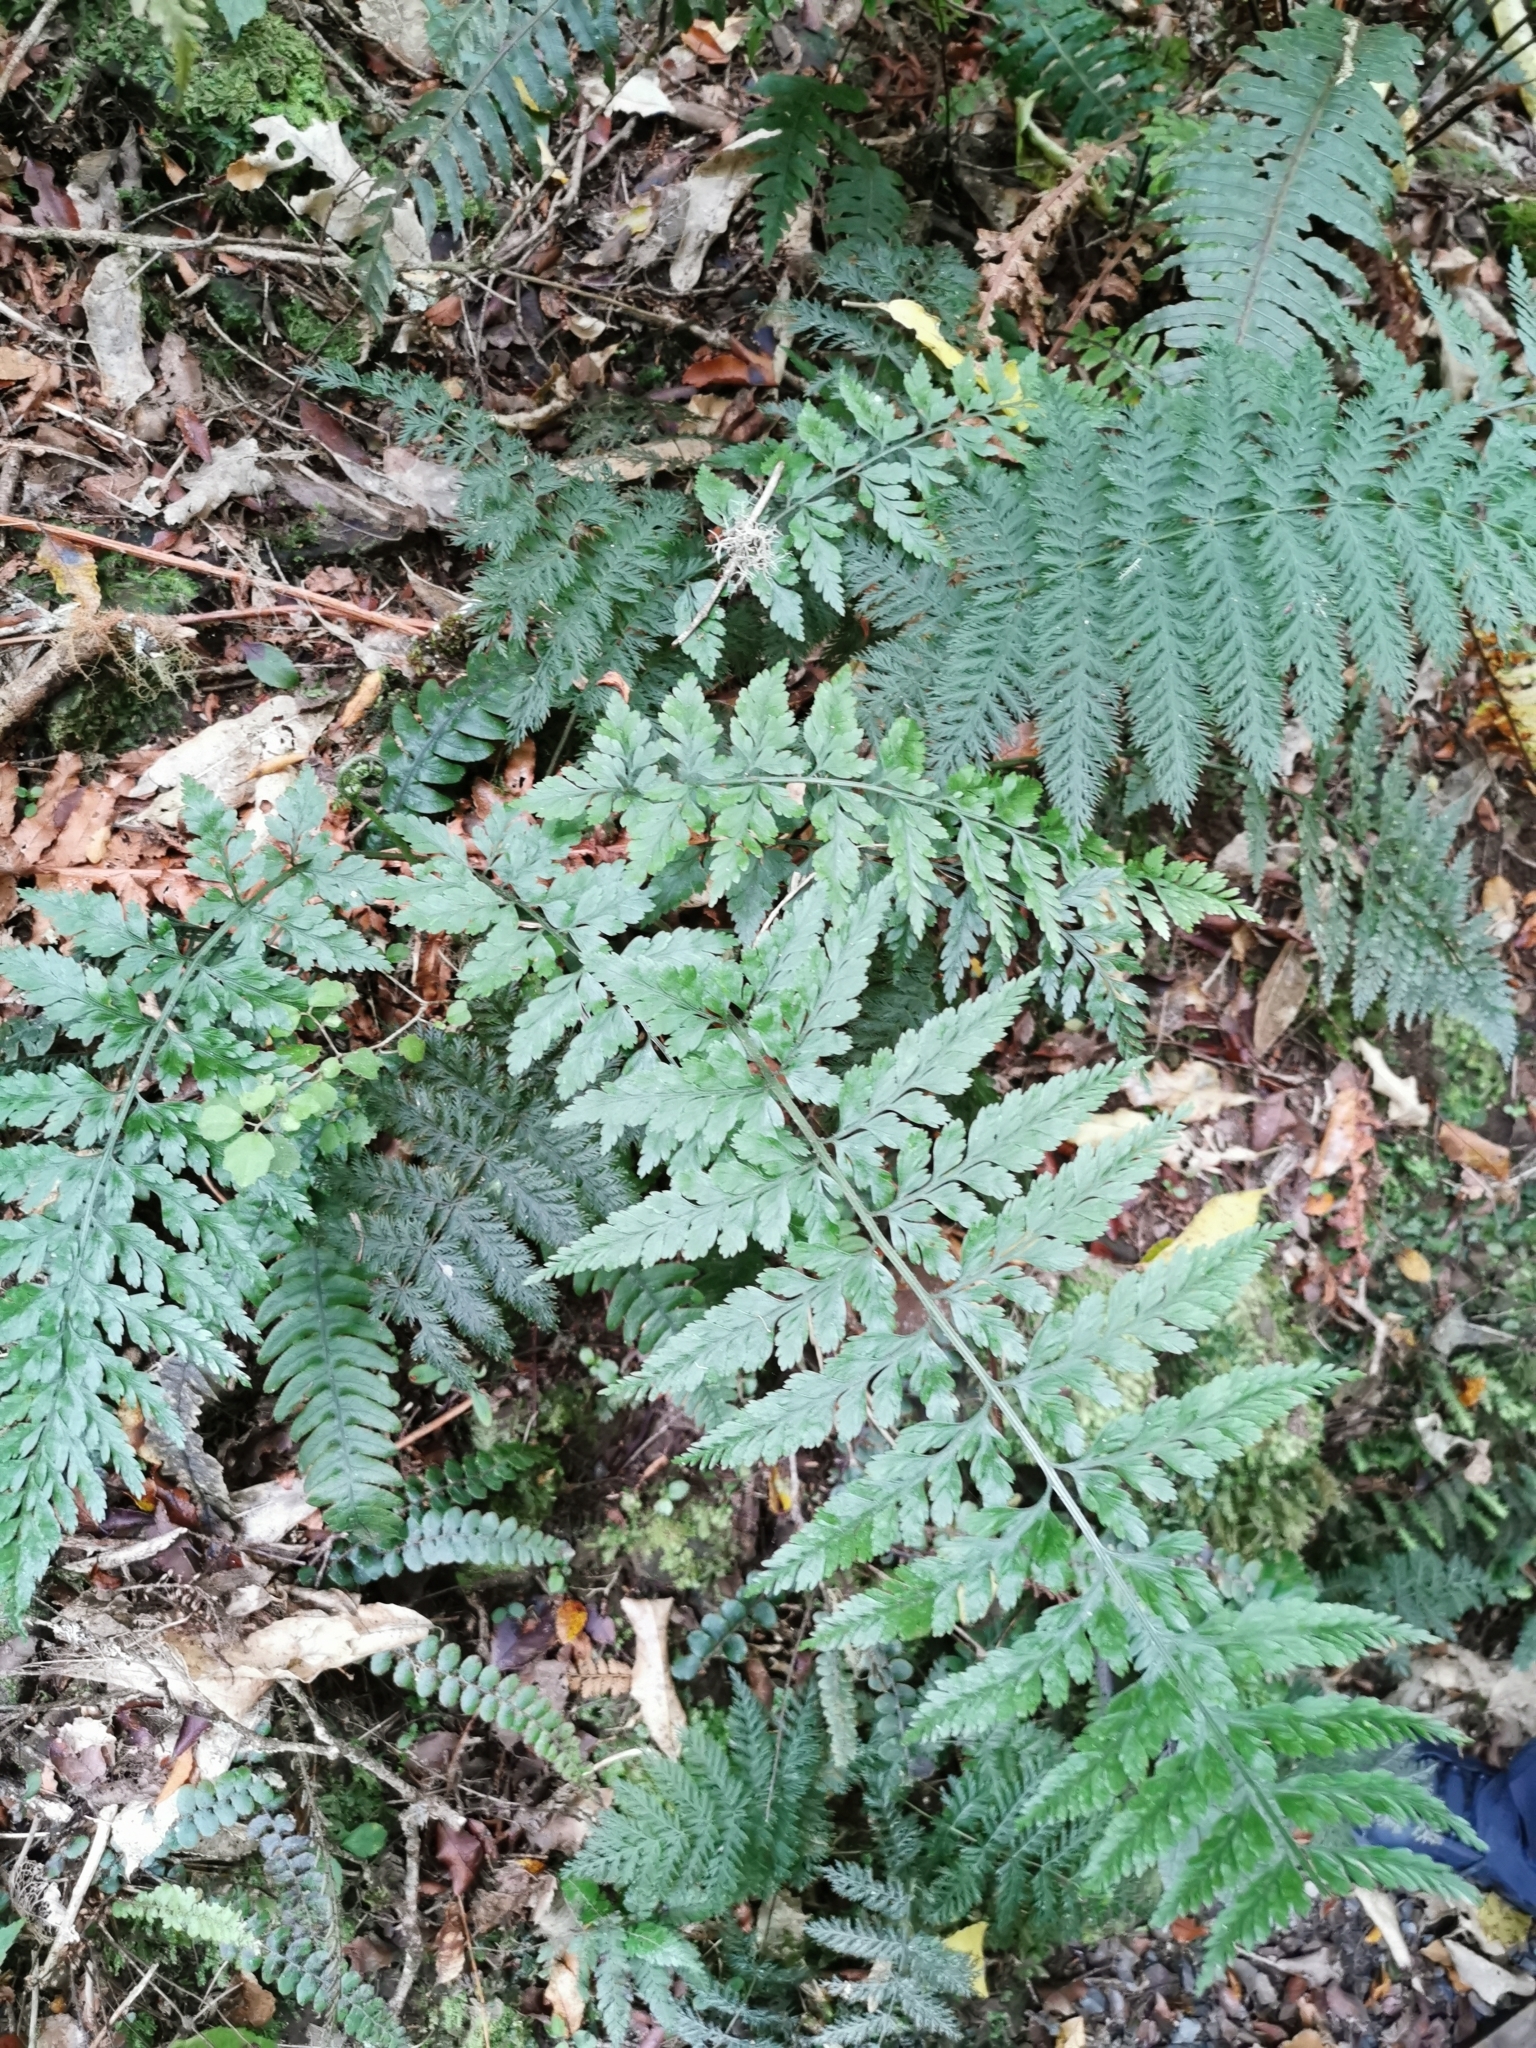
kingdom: Plantae
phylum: Tracheophyta
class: Polypodiopsida
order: Polypodiales
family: Aspleniaceae
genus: Asplenium
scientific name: Asplenium
